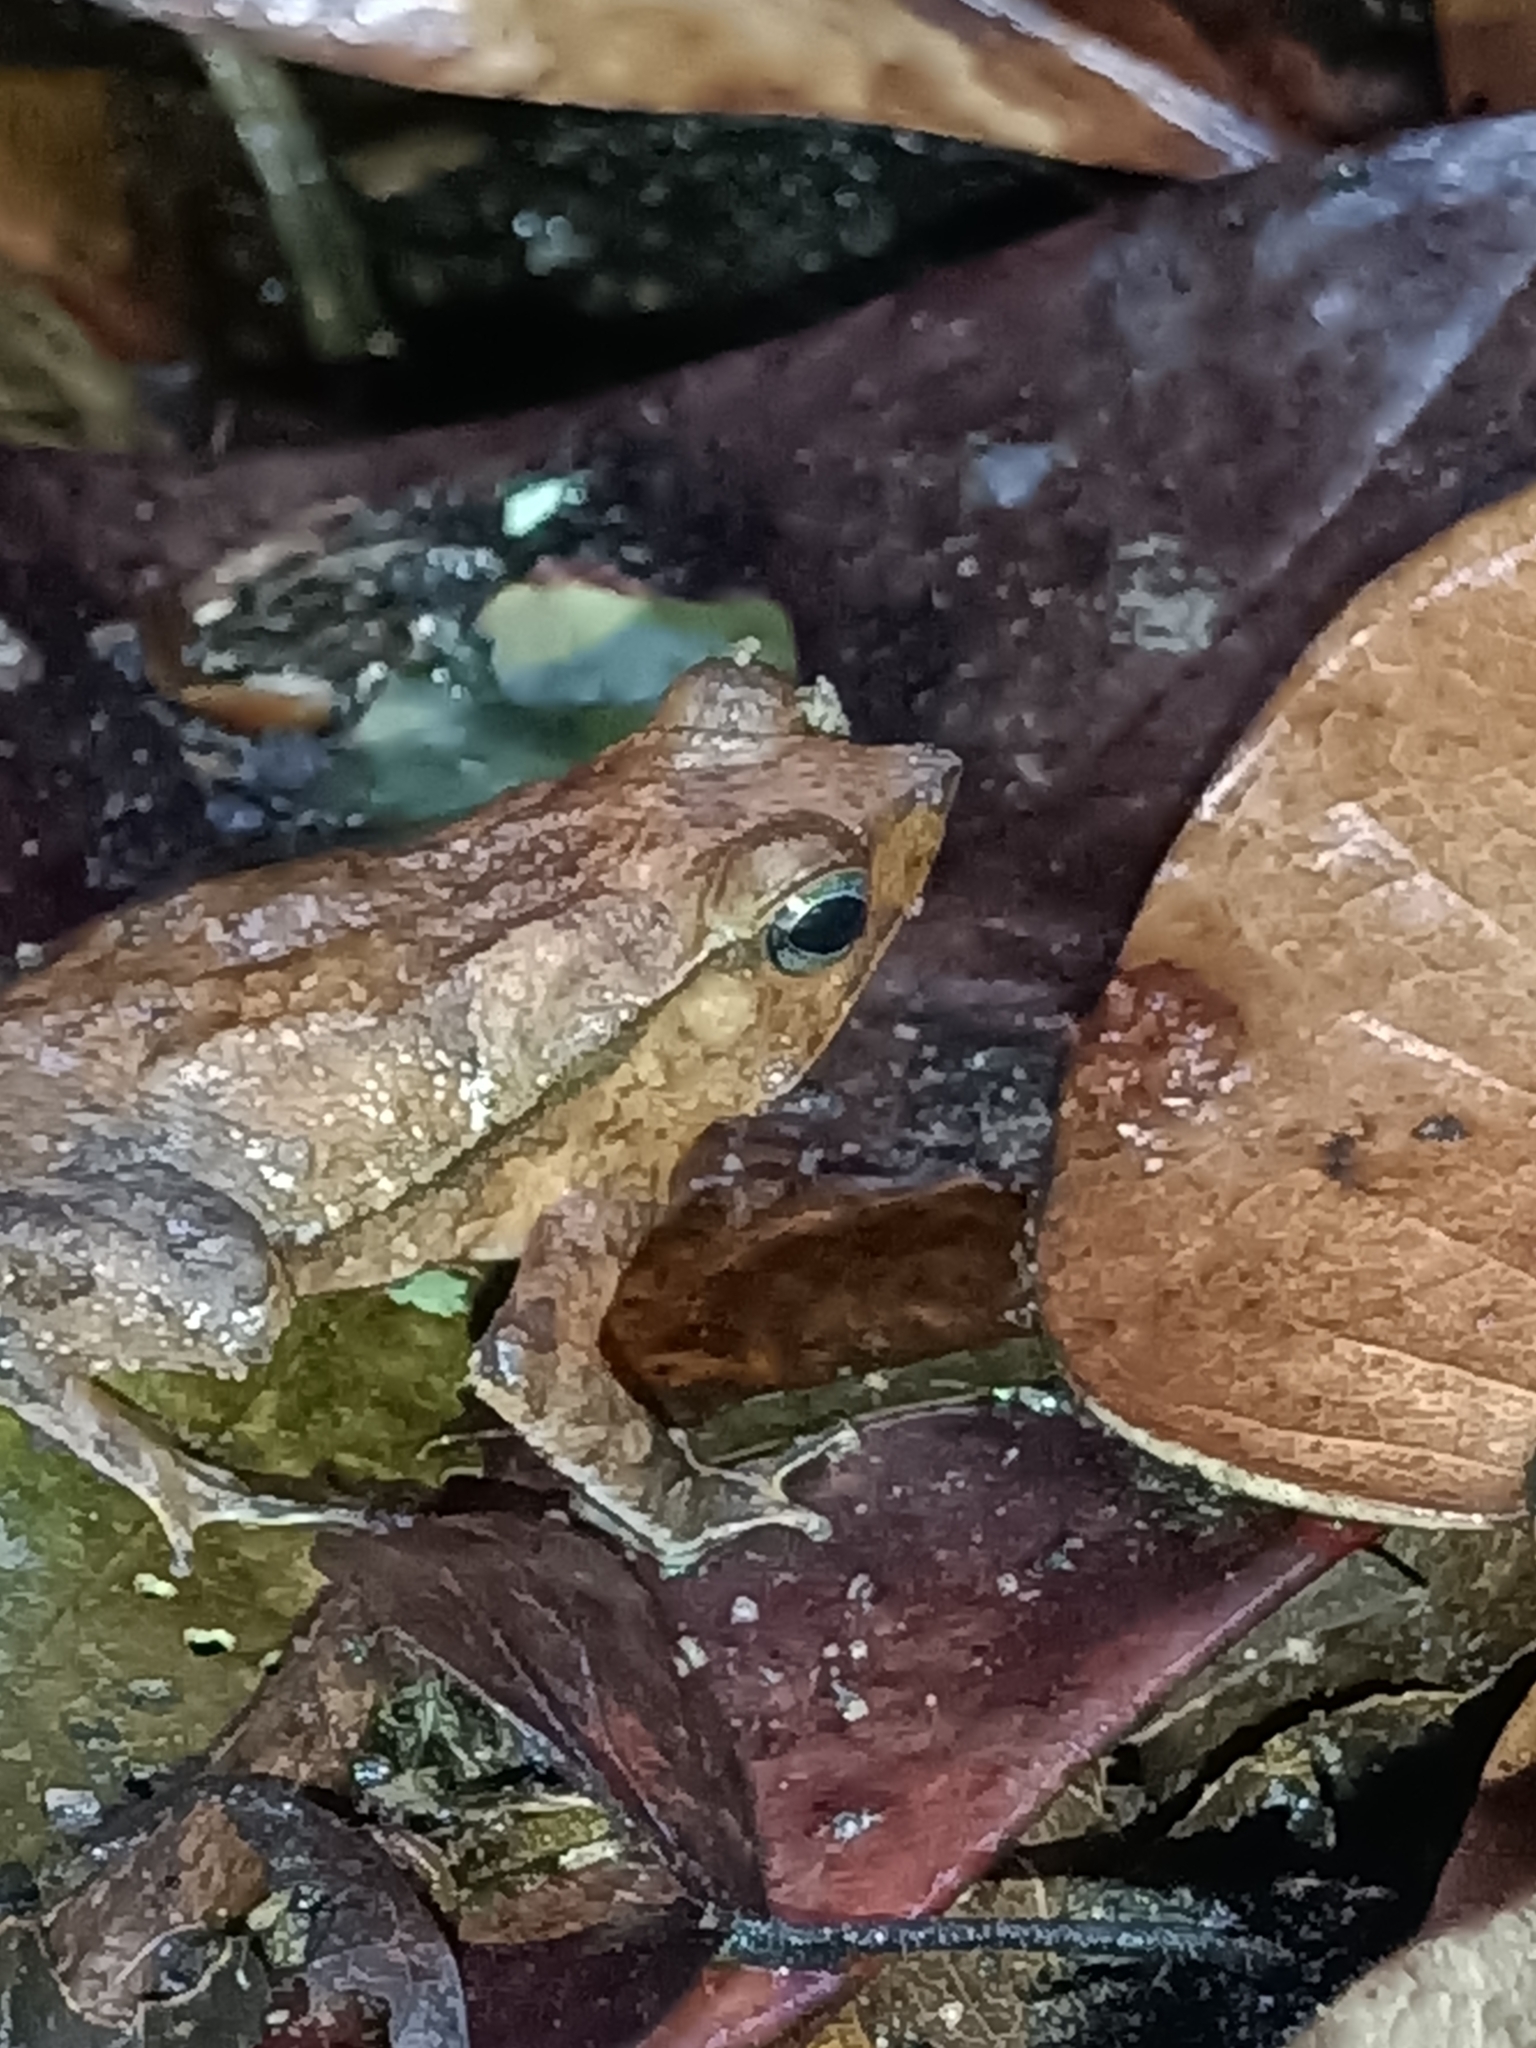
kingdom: Animalia
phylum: Chordata
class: Amphibia
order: Anura
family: Bufonidae
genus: Rhinella
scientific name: Rhinella castaneotica
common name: Para toad
